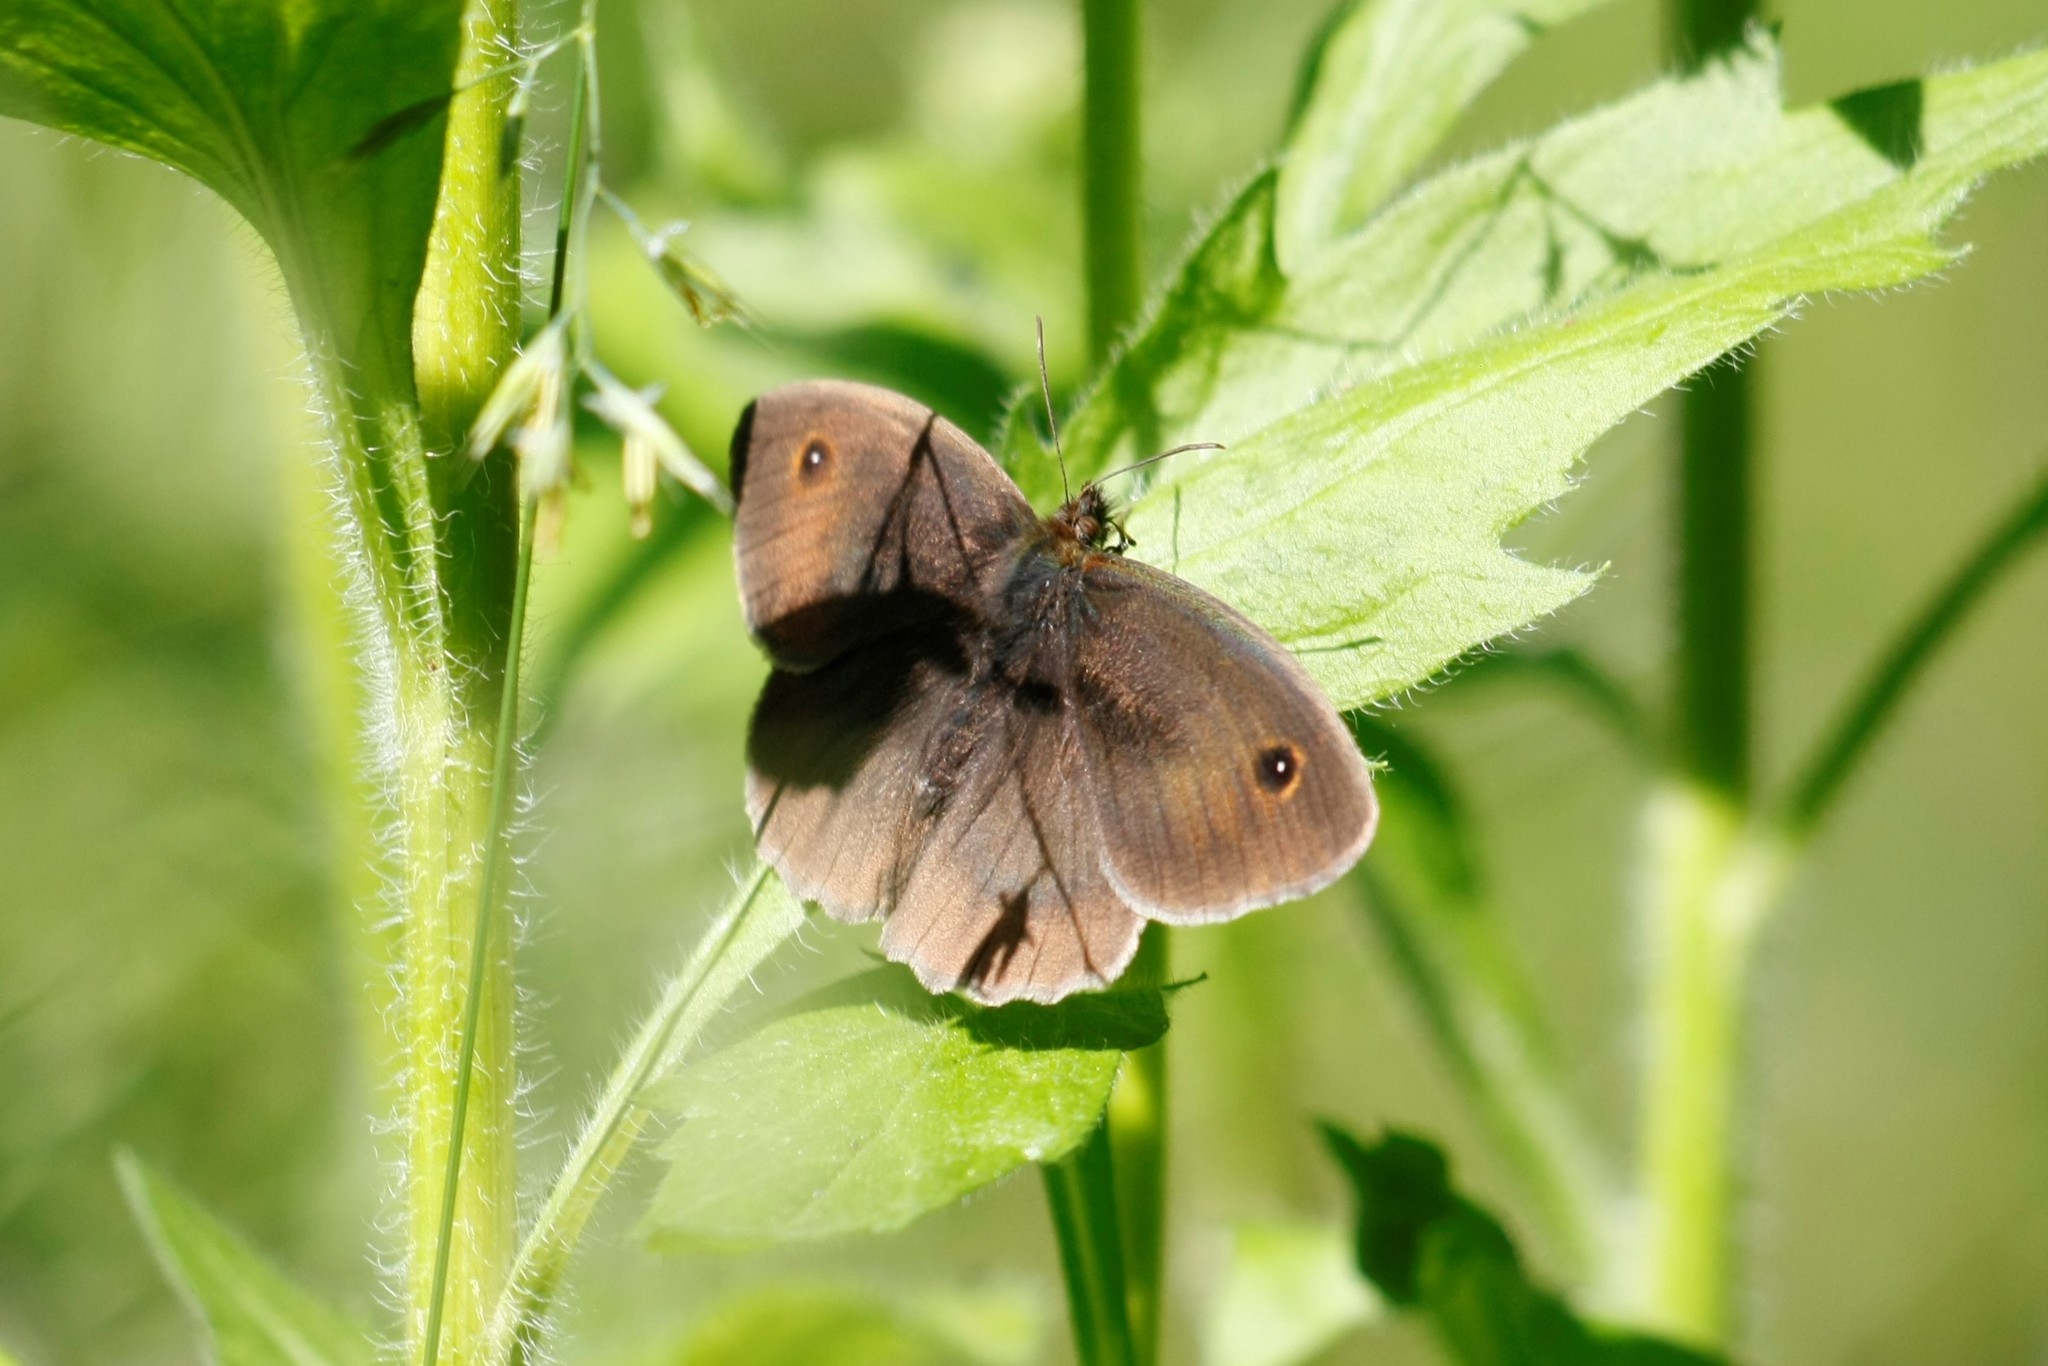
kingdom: Animalia
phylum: Arthropoda
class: Insecta
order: Lepidoptera
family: Nymphalidae
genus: Maniola
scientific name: Maniola jurtina
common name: Meadow brown
